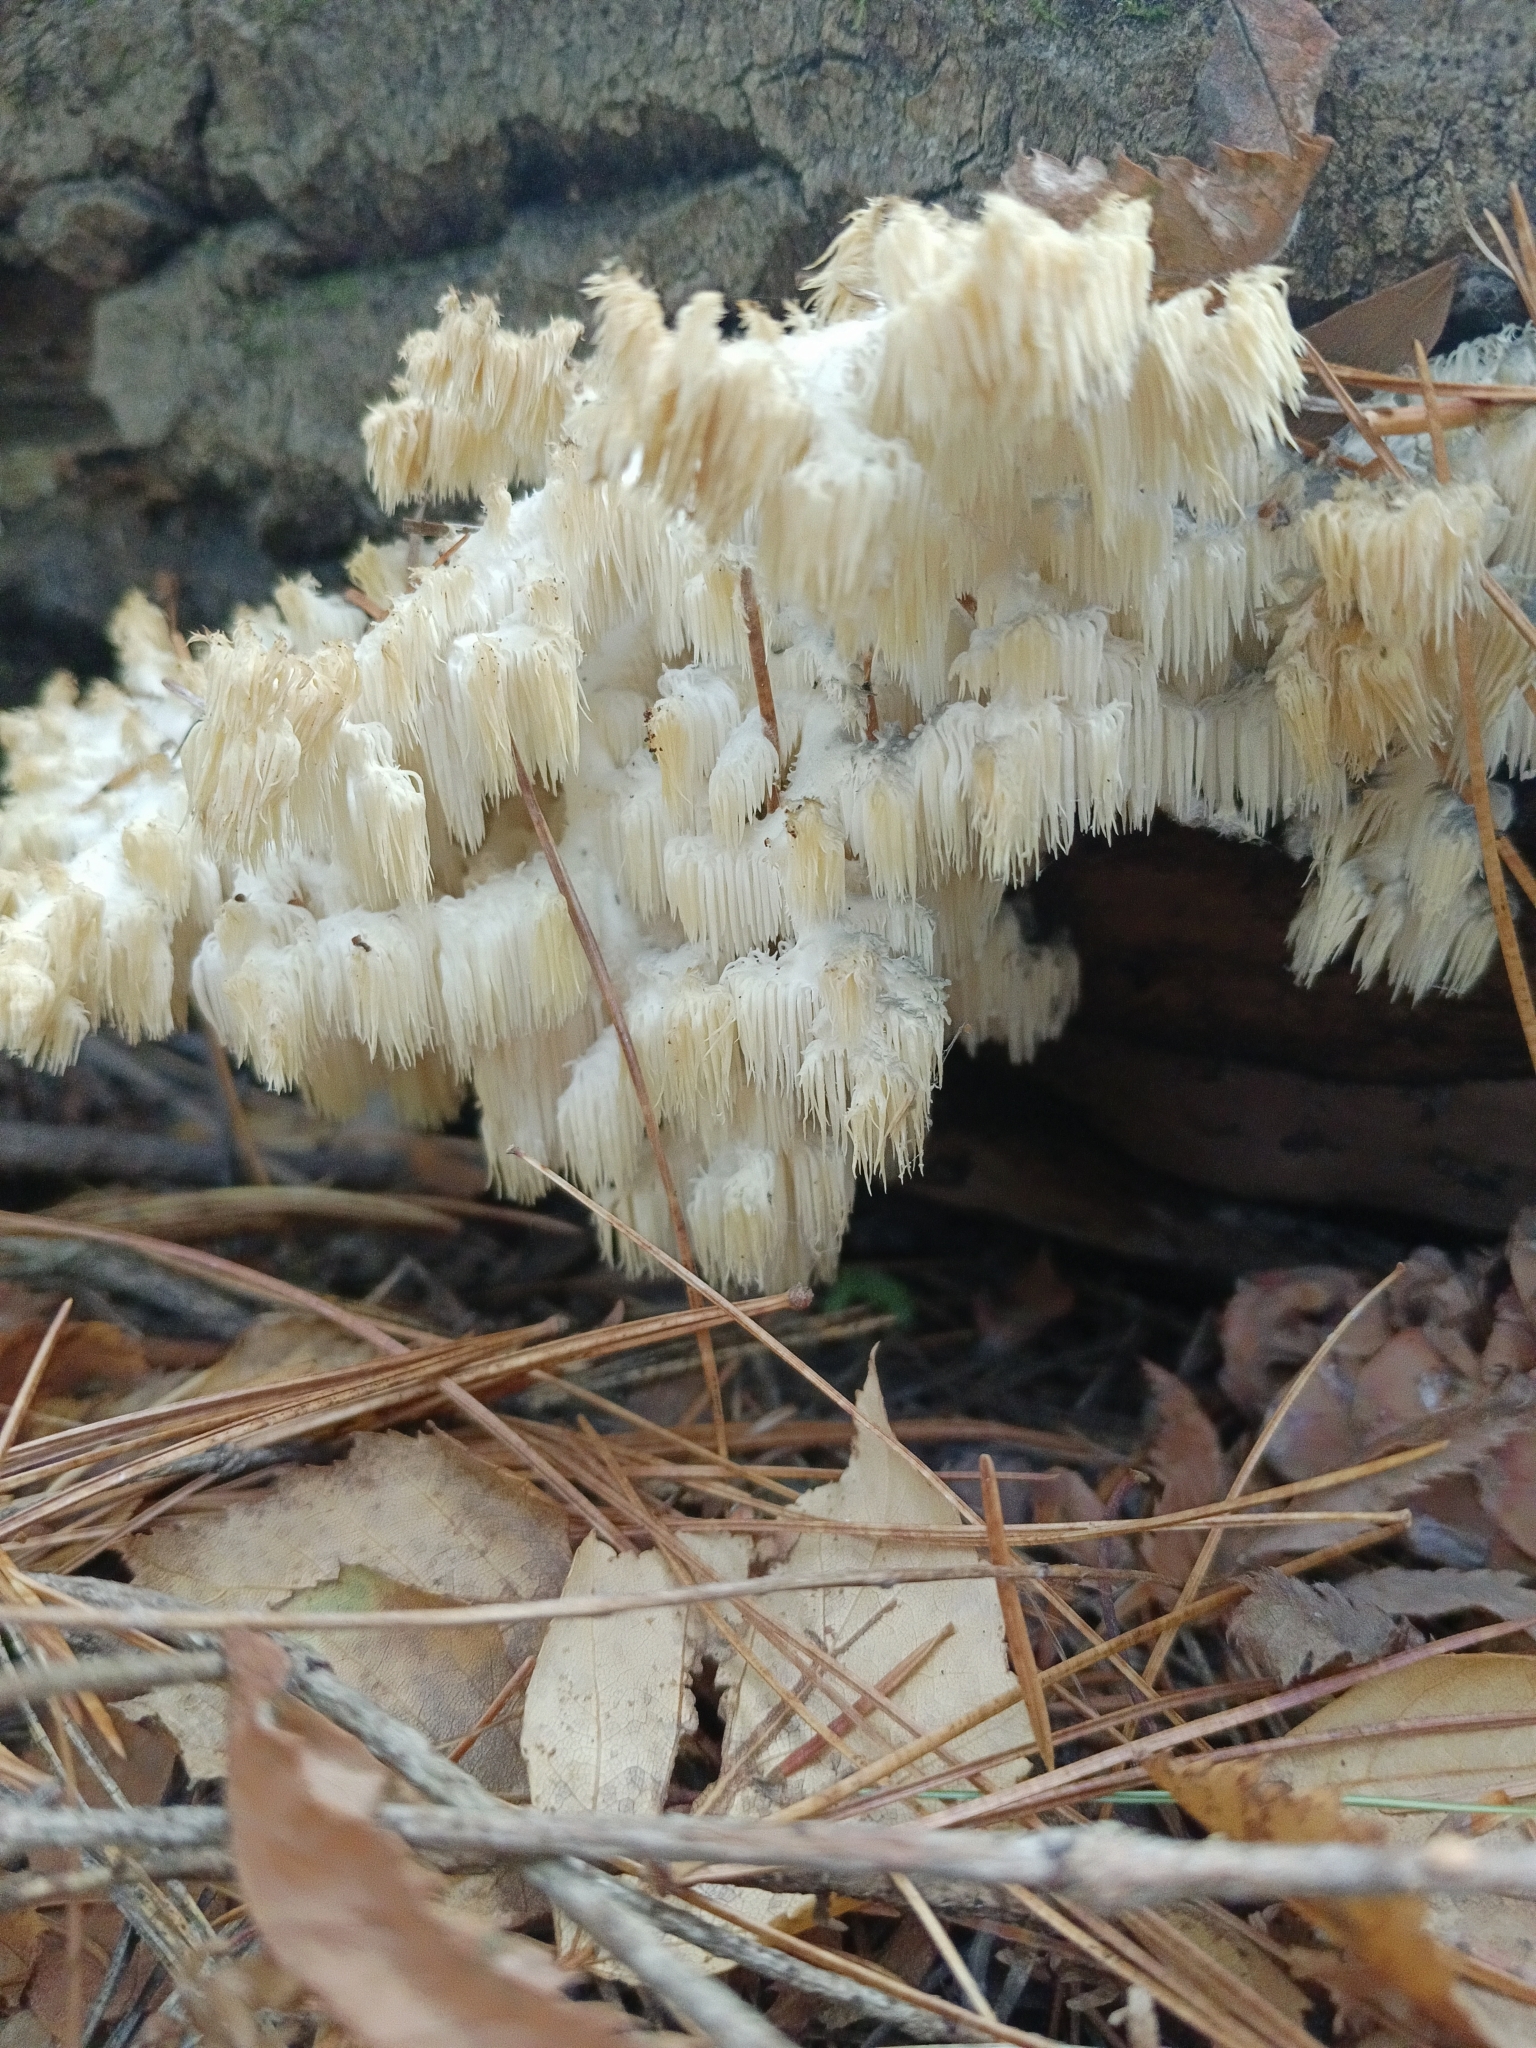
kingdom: Fungi
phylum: Basidiomycota
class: Agaricomycetes
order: Russulales
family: Hericiaceae
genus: Hericium
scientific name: Hericium coralloides
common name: Coral tooth
